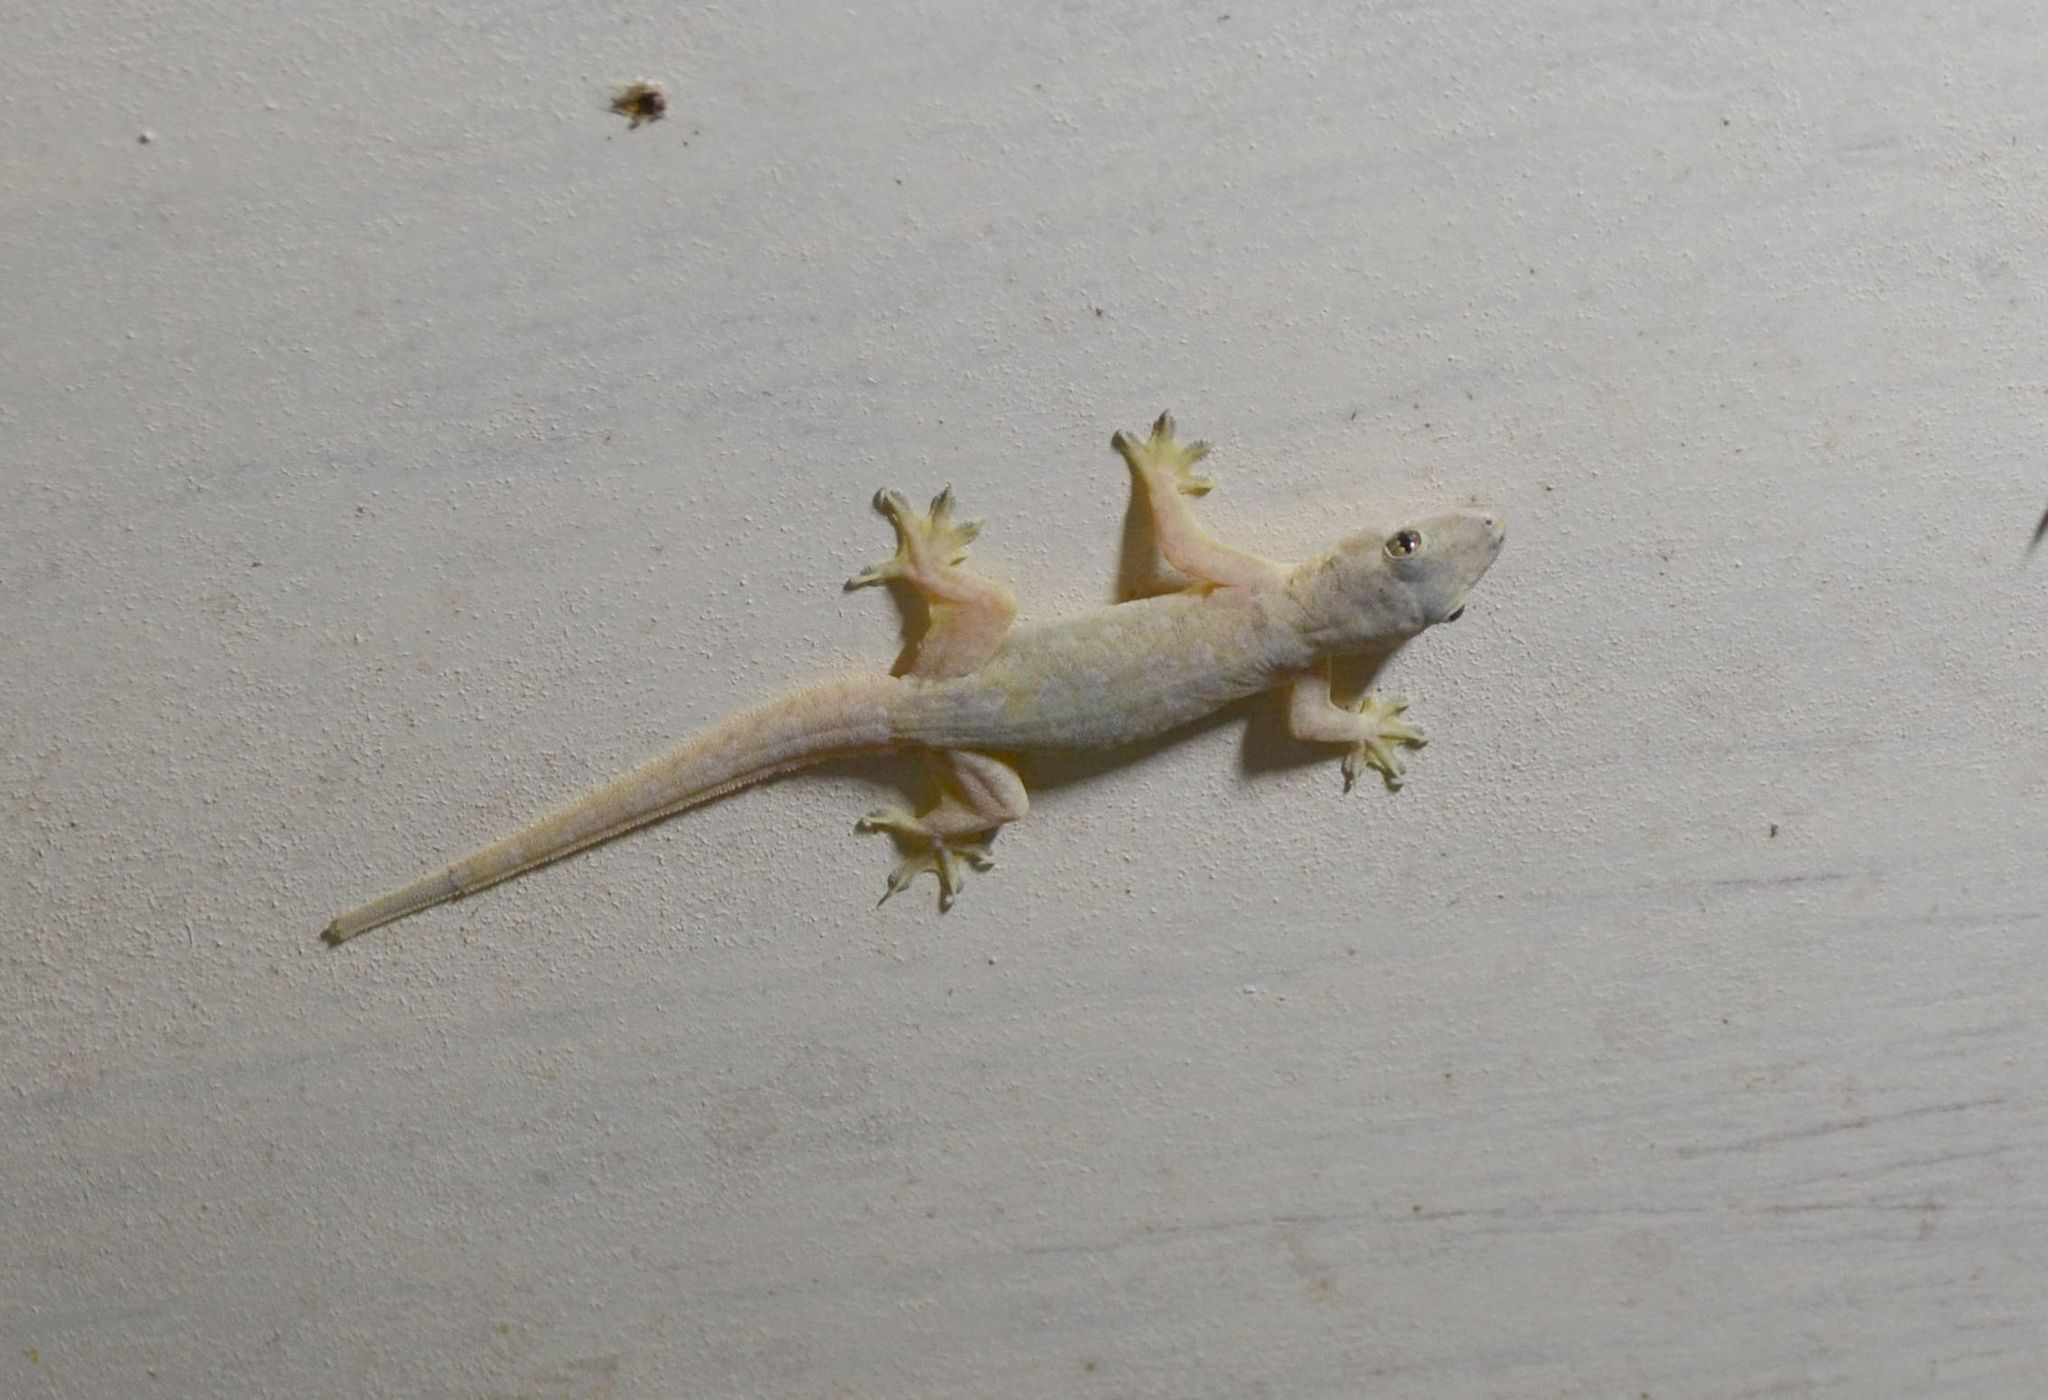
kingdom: Animalia
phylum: Chordata
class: Squamata
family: Gekkonidae
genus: Hemidactylus
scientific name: Hemidactylus platyurus
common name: Flat-tailed house gecko
